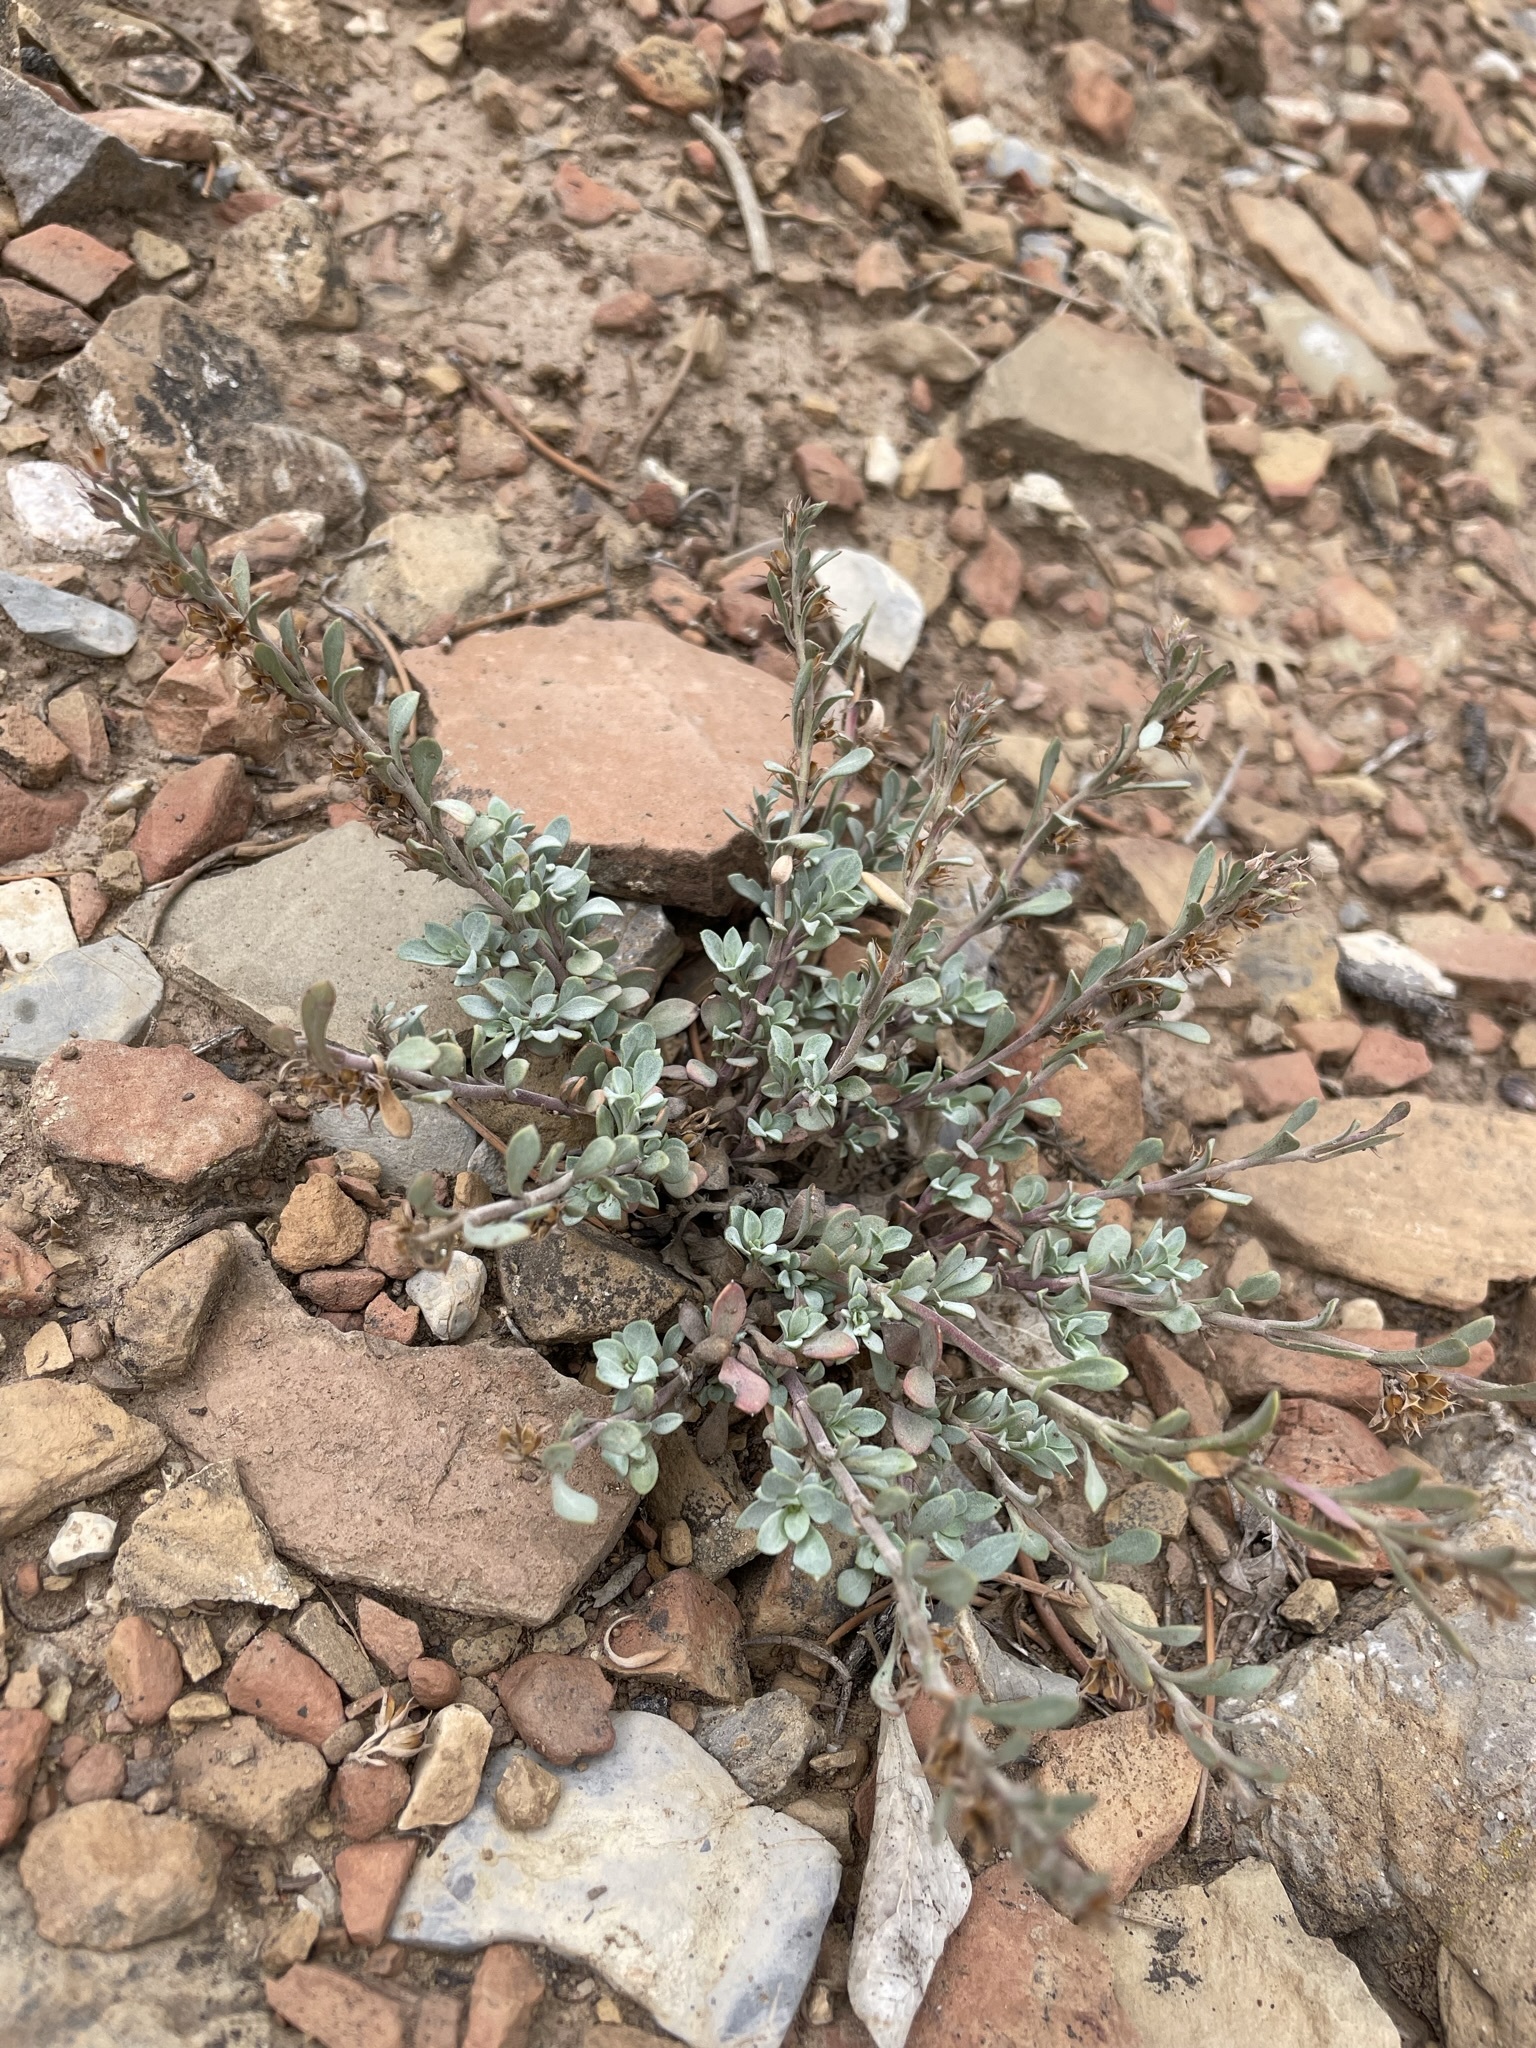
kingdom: Plantae
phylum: Tracheophyta
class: Magnoliopsida
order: Lamiales
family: Plantaginaceae
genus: Penstemon
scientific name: Penstemon thompsoniae
